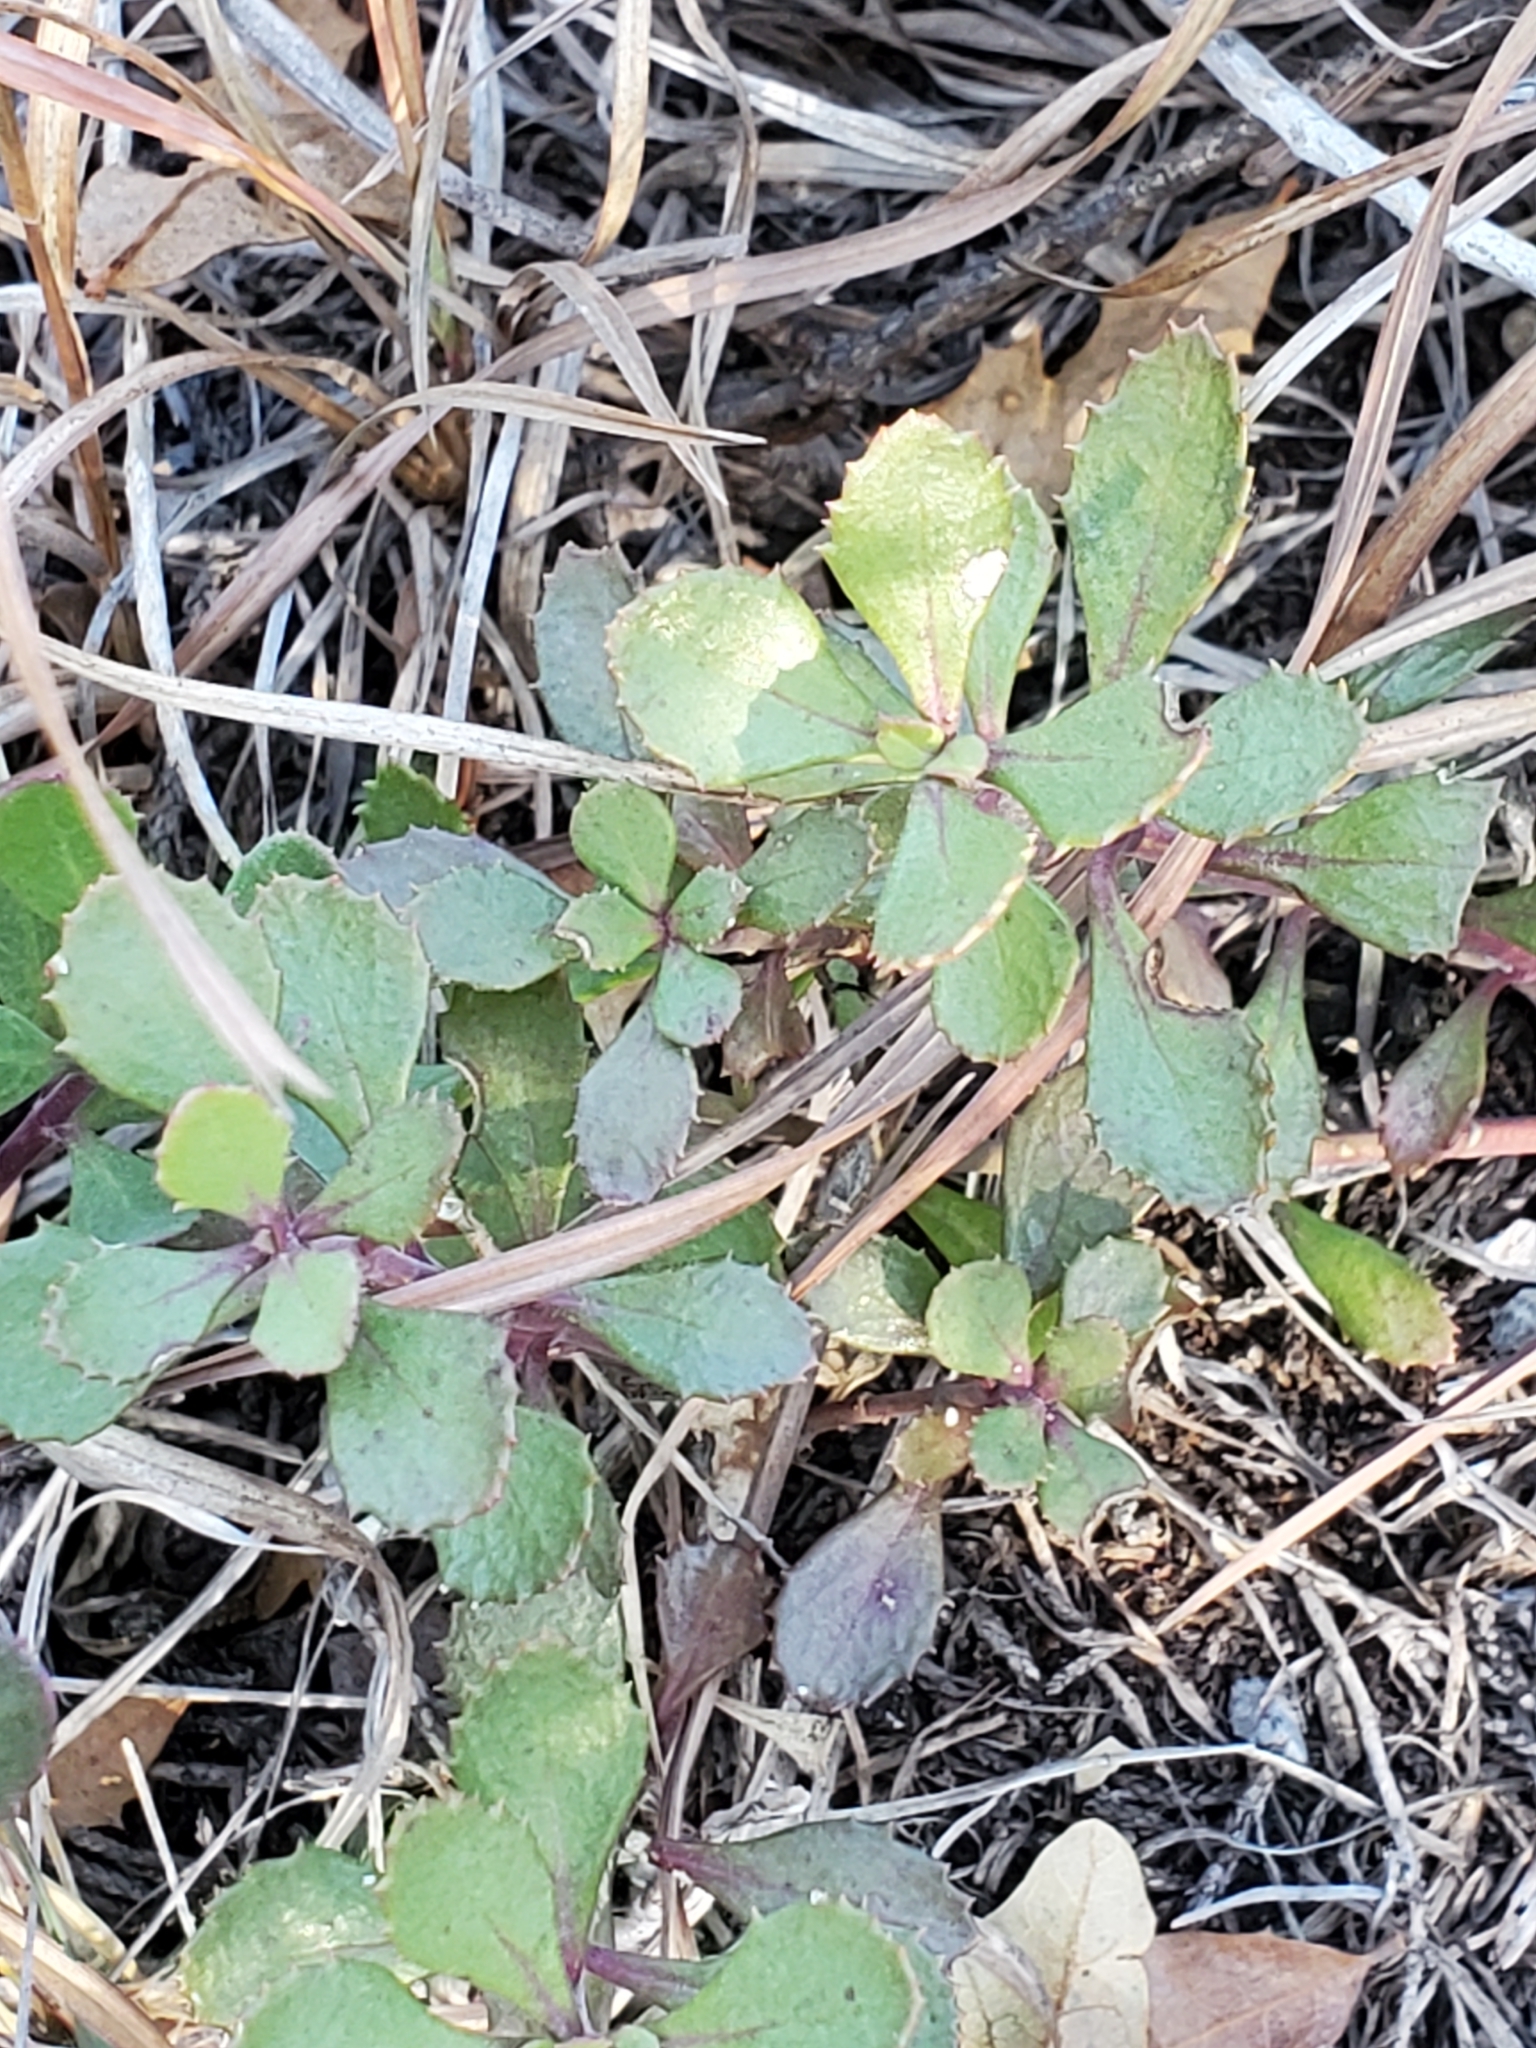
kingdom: Plantae
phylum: Tracheophyta
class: Magnoliopsida
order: Lamiales
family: Plantaginaceae
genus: Penstemon
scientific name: Penstemon baccharifolius
